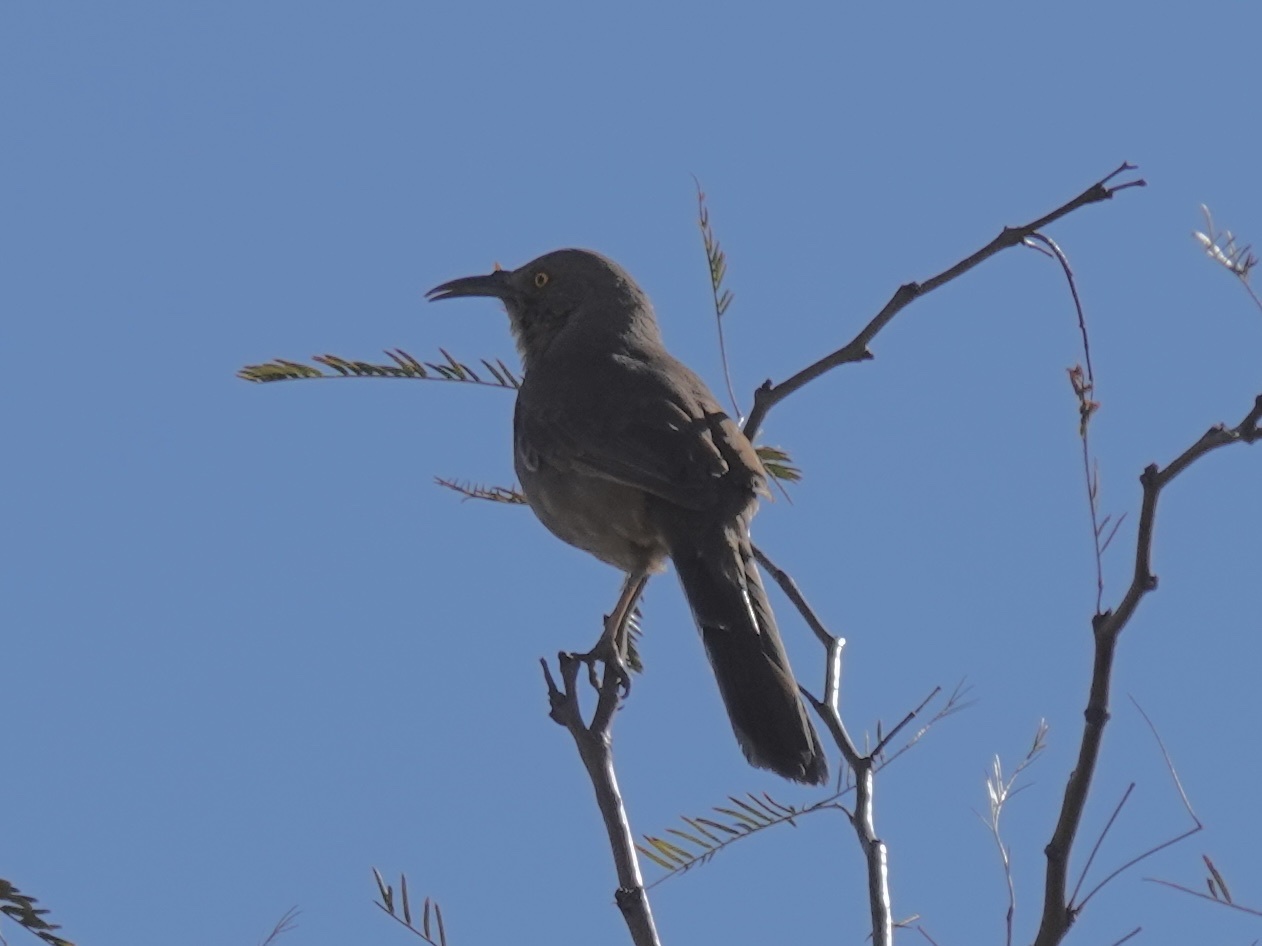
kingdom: Animalia
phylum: Chordata
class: Aves
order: Passeriformes
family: Mimidae
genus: Toxostoma
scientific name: Toxostoma curvirostre
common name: Curve-billed thrasher
